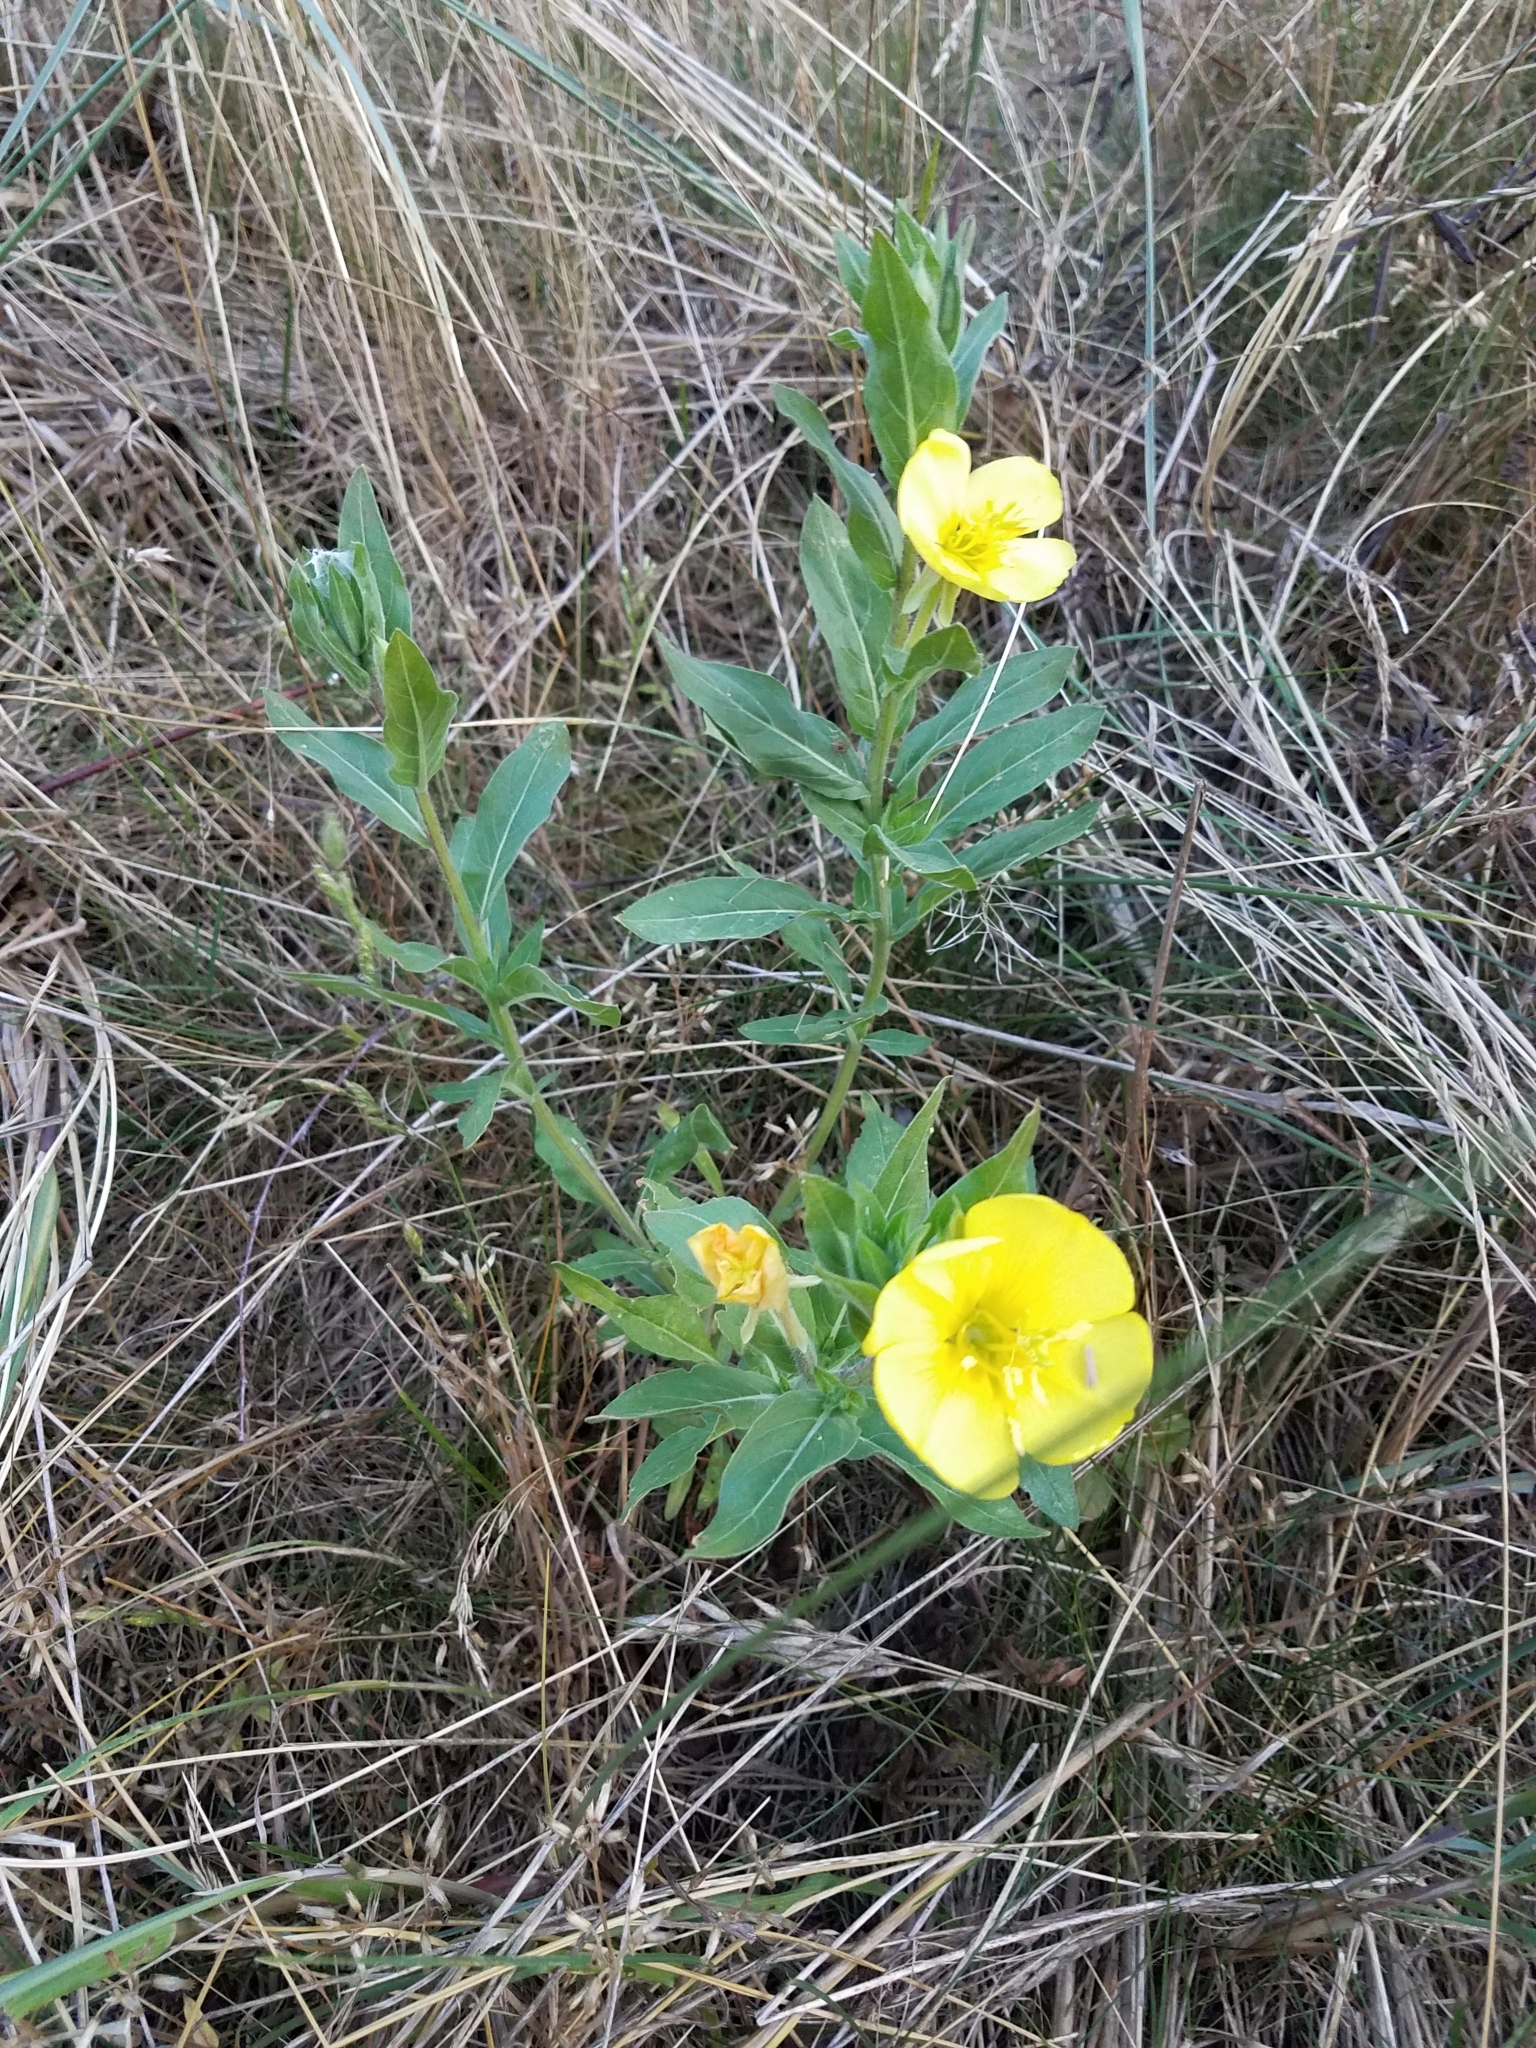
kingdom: Plantae
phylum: Tracheophyta
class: Magnoliopsida
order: Myrtales
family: Onagraceae
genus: Oenothera
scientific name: Oenothera biennis
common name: Common evening-primrose
